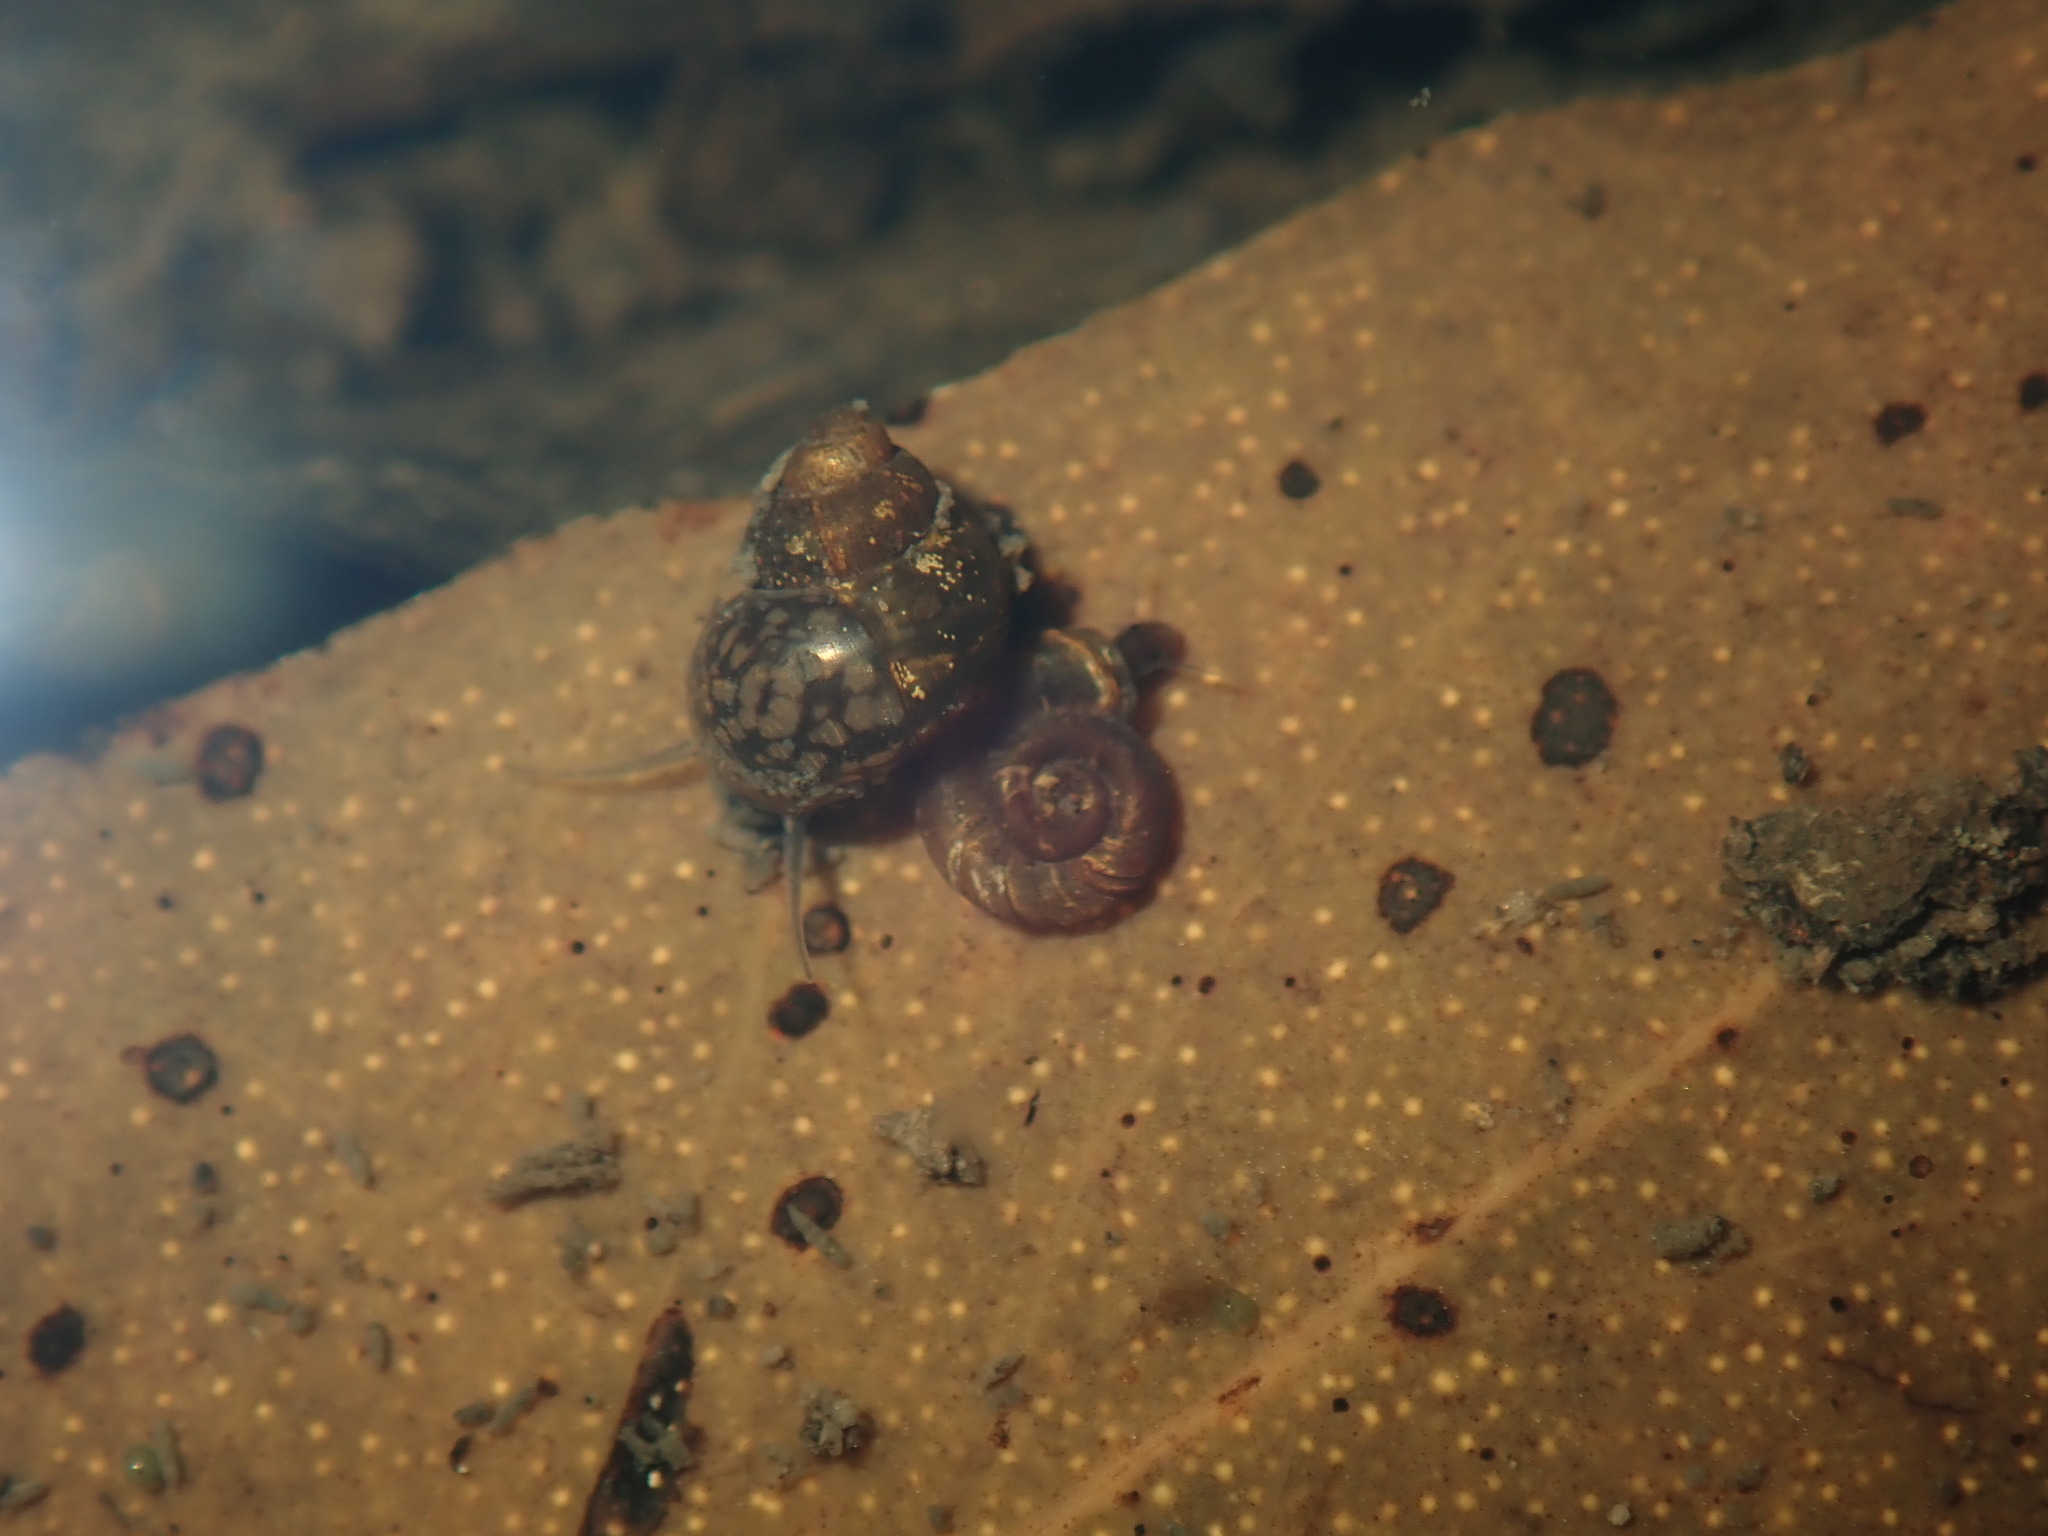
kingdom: Animalia
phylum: Mollusca
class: Gastropoda
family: Planorbidae
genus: Gyraulus
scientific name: Gyraulus scottianus
